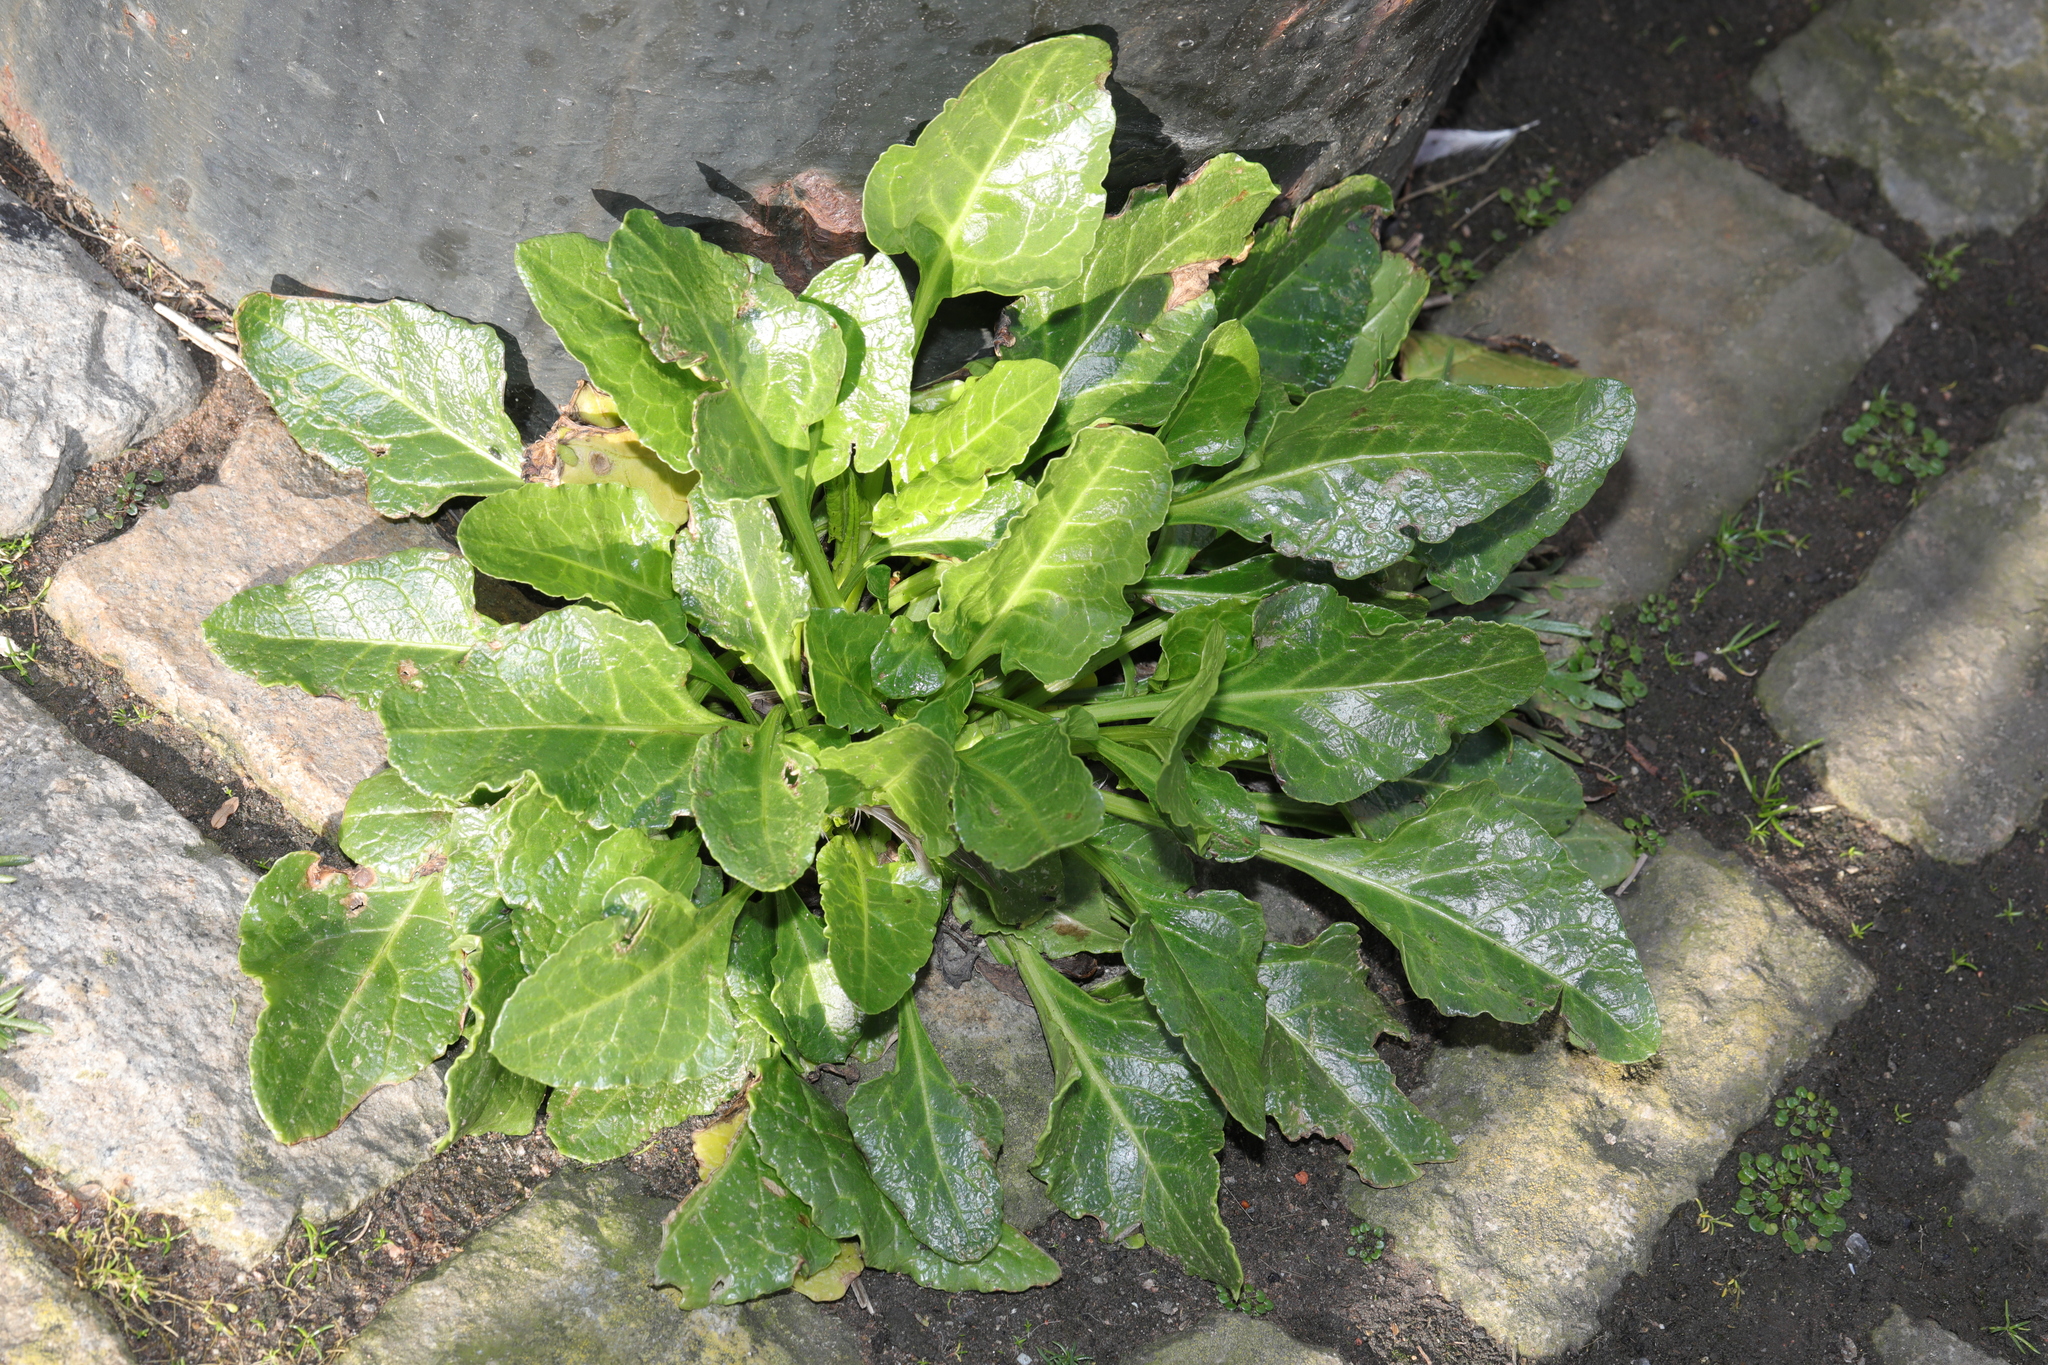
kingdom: Plantae
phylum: Tracheophyta
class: Magnoliopsida
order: Caryophyllales
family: Amaranthaceae
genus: Beta
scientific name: Beta vulgaris
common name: Beet
